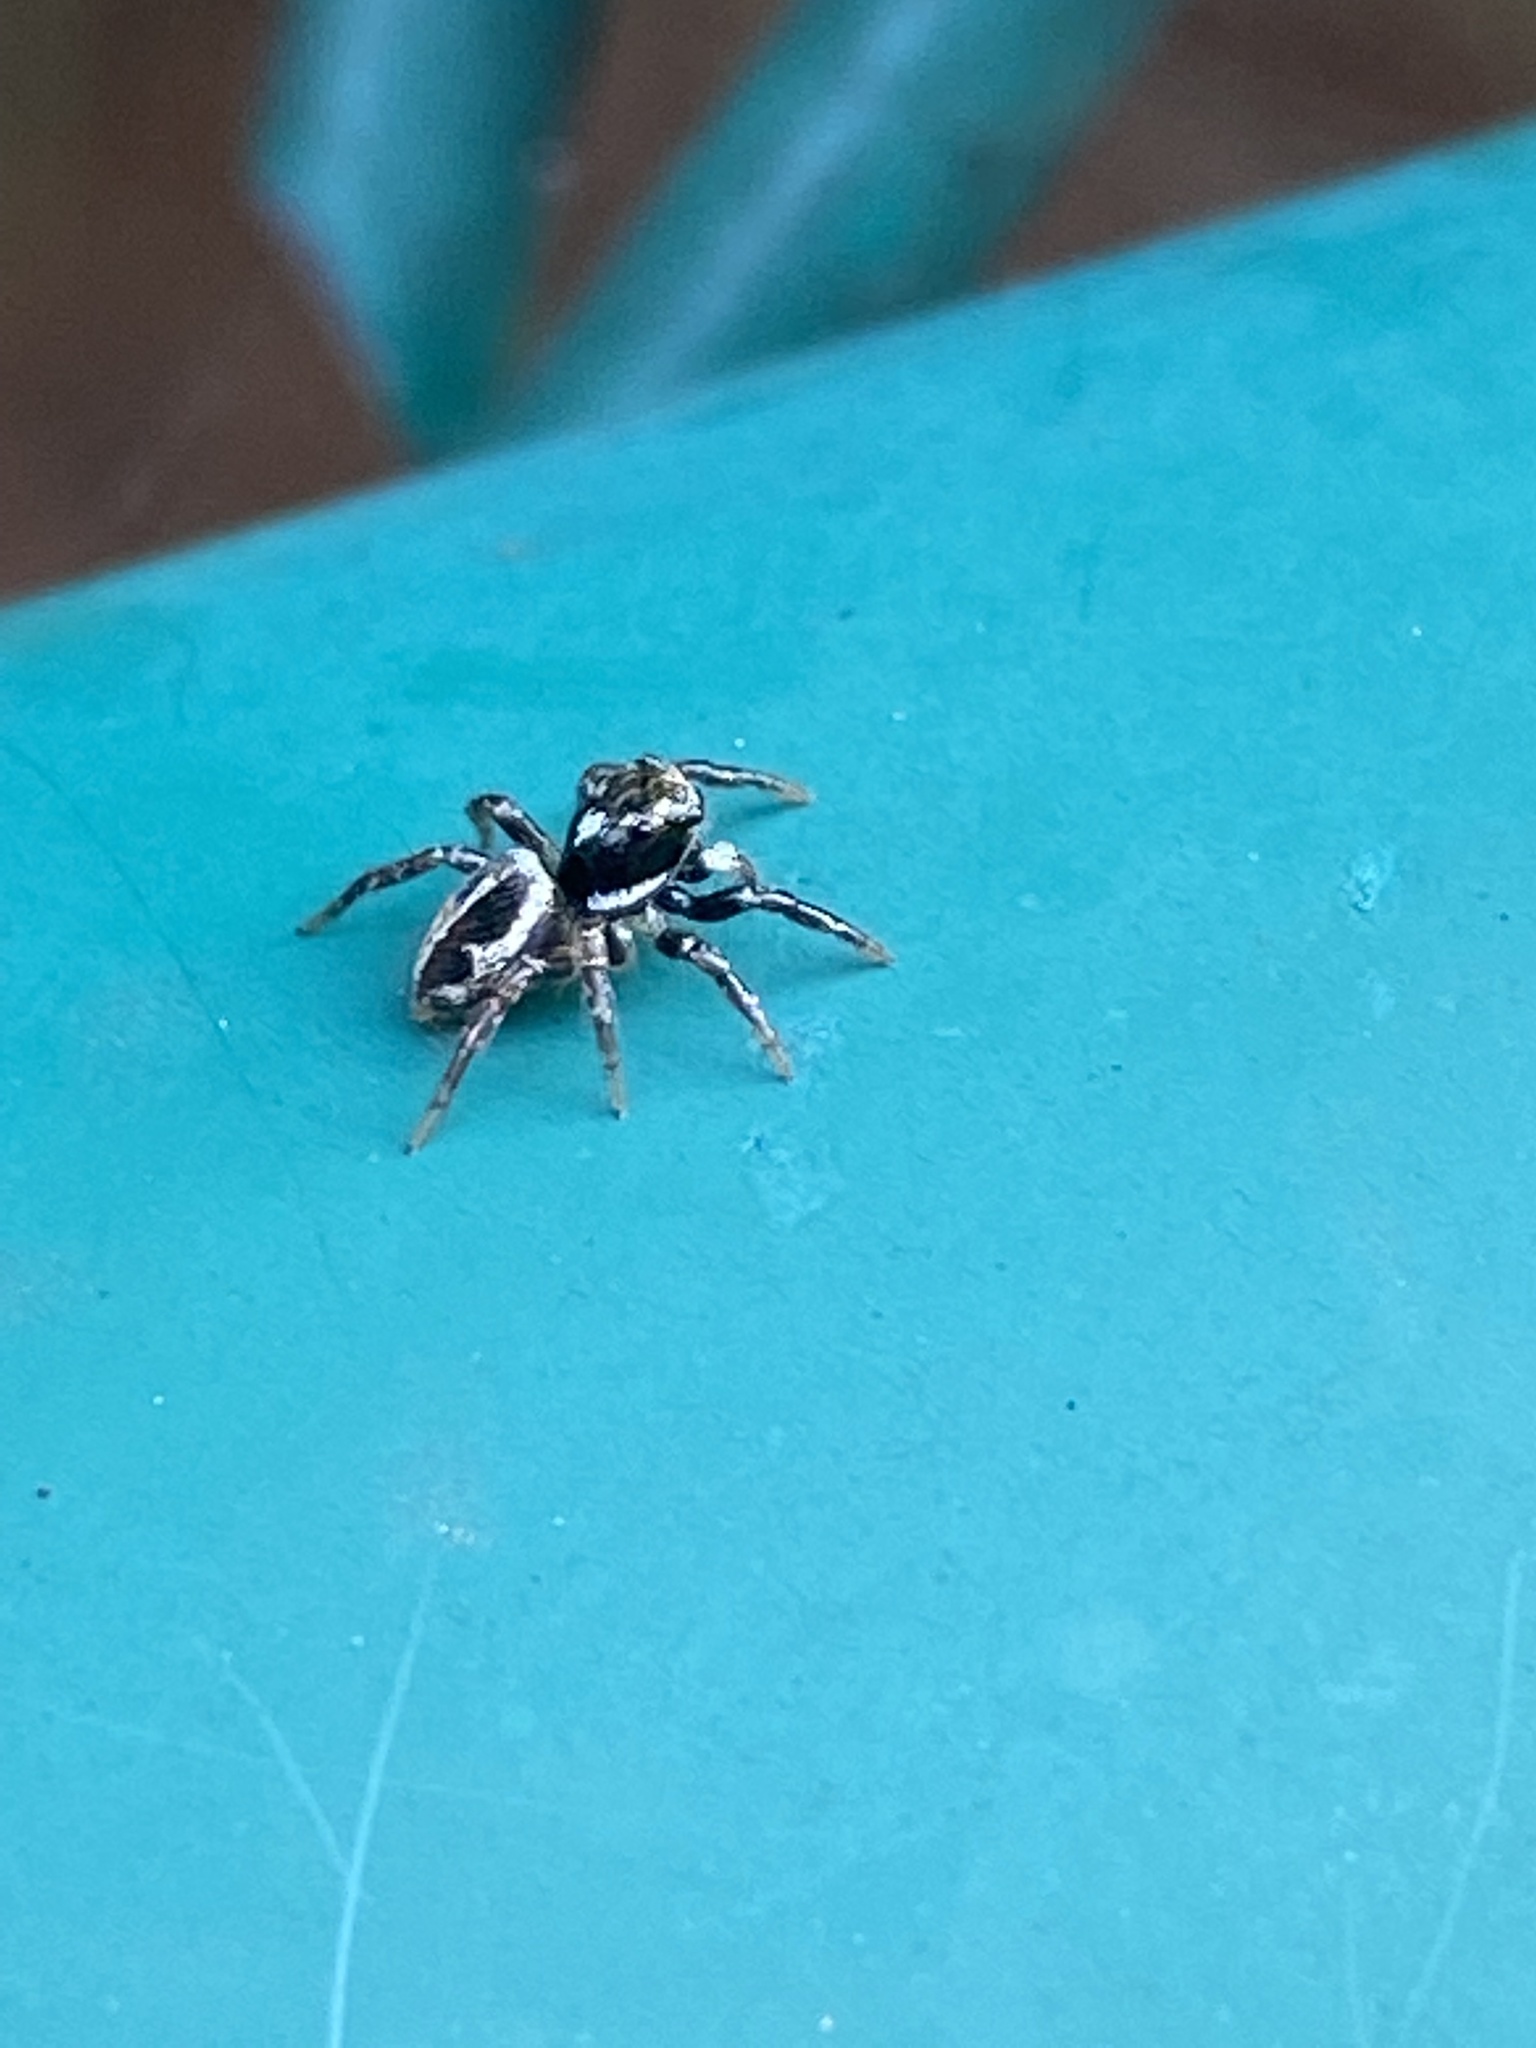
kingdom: Animalia
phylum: Arthropoda
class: Arachnida
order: Araneae
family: Salticidae
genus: Anasaitis
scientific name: Anasaitis canosa
